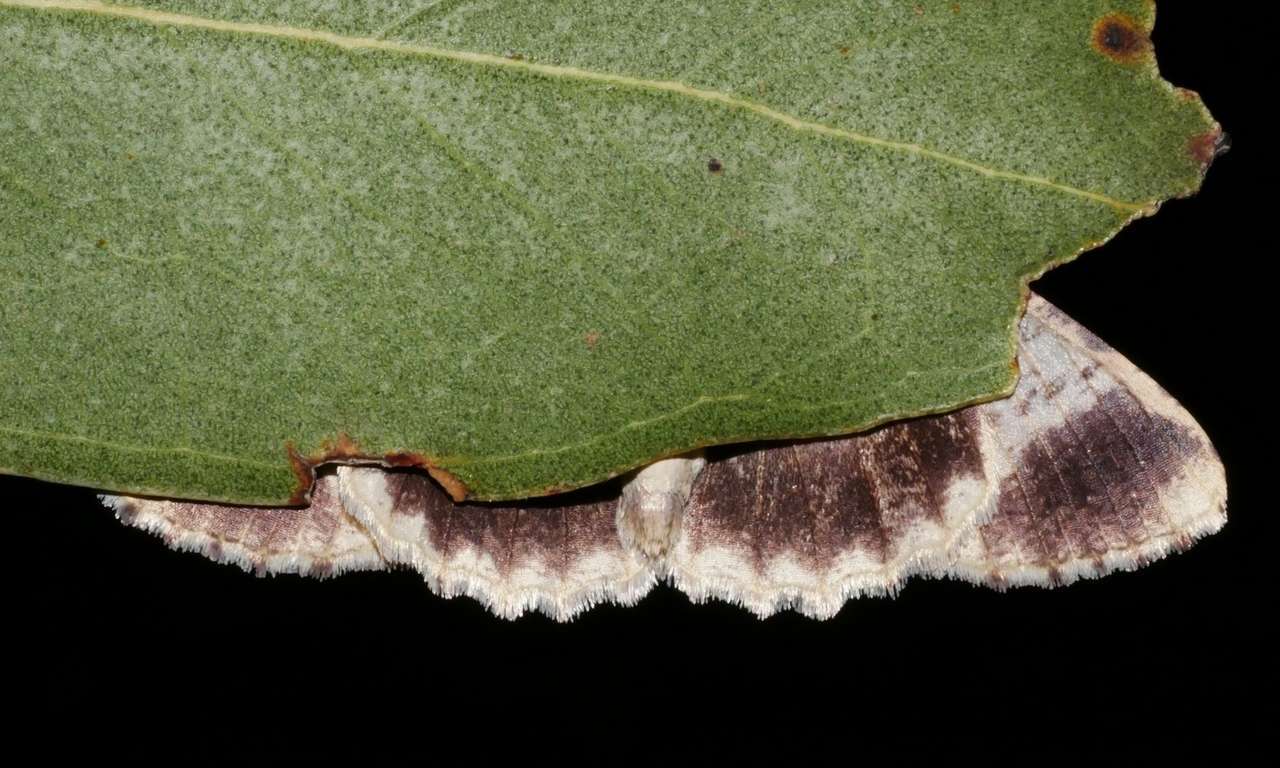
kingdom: Animalia
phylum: Arthropoda
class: Insecta
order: Lepidoptera
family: Geometridae
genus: Gastrinodes
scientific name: Gastrinodes bitaeniaria
